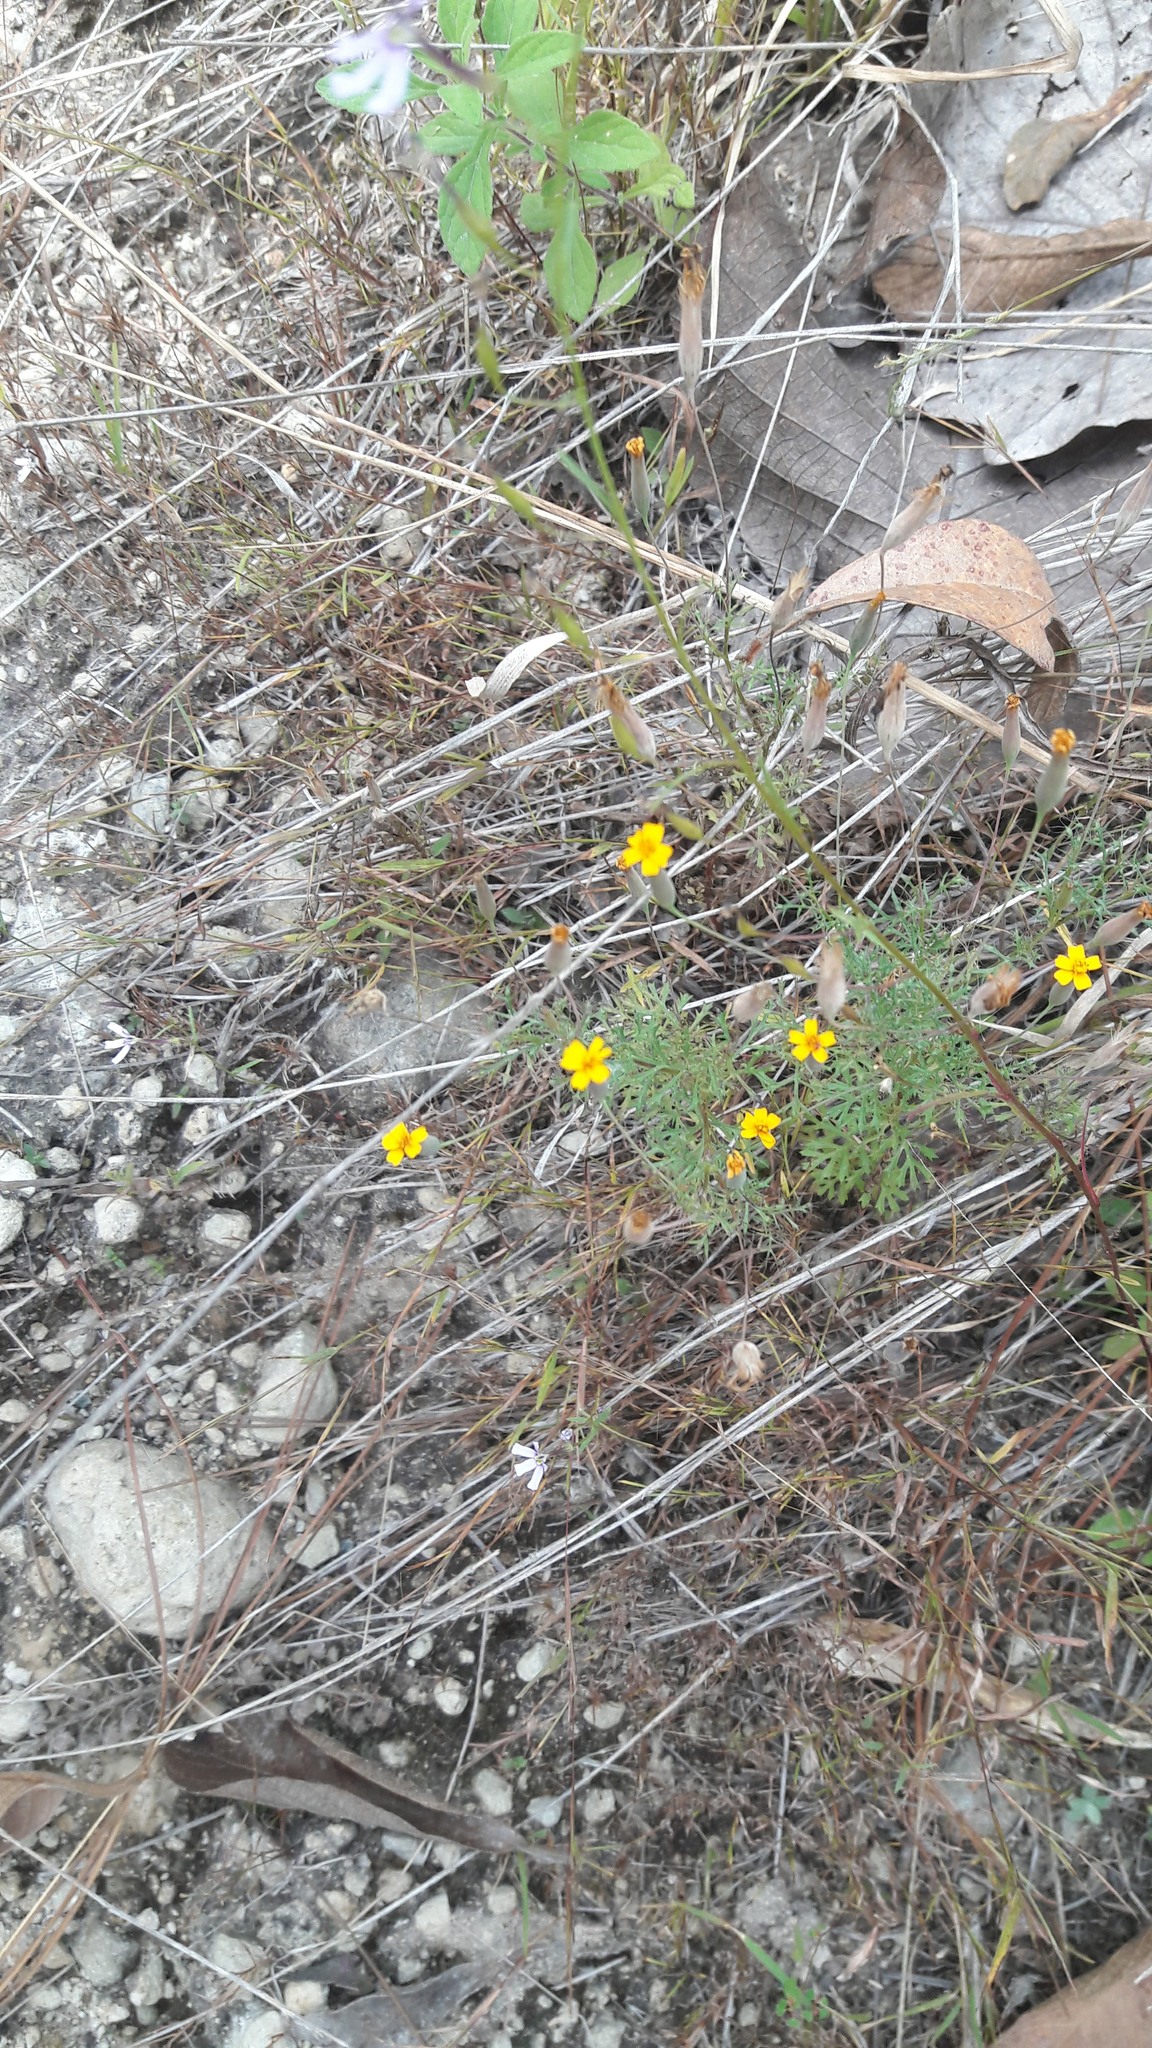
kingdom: Plantae
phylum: Tracheophyta
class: Magnoliopsida
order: Asterales
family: Asteraceae
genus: Tagetes
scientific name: Tagetes subulata
